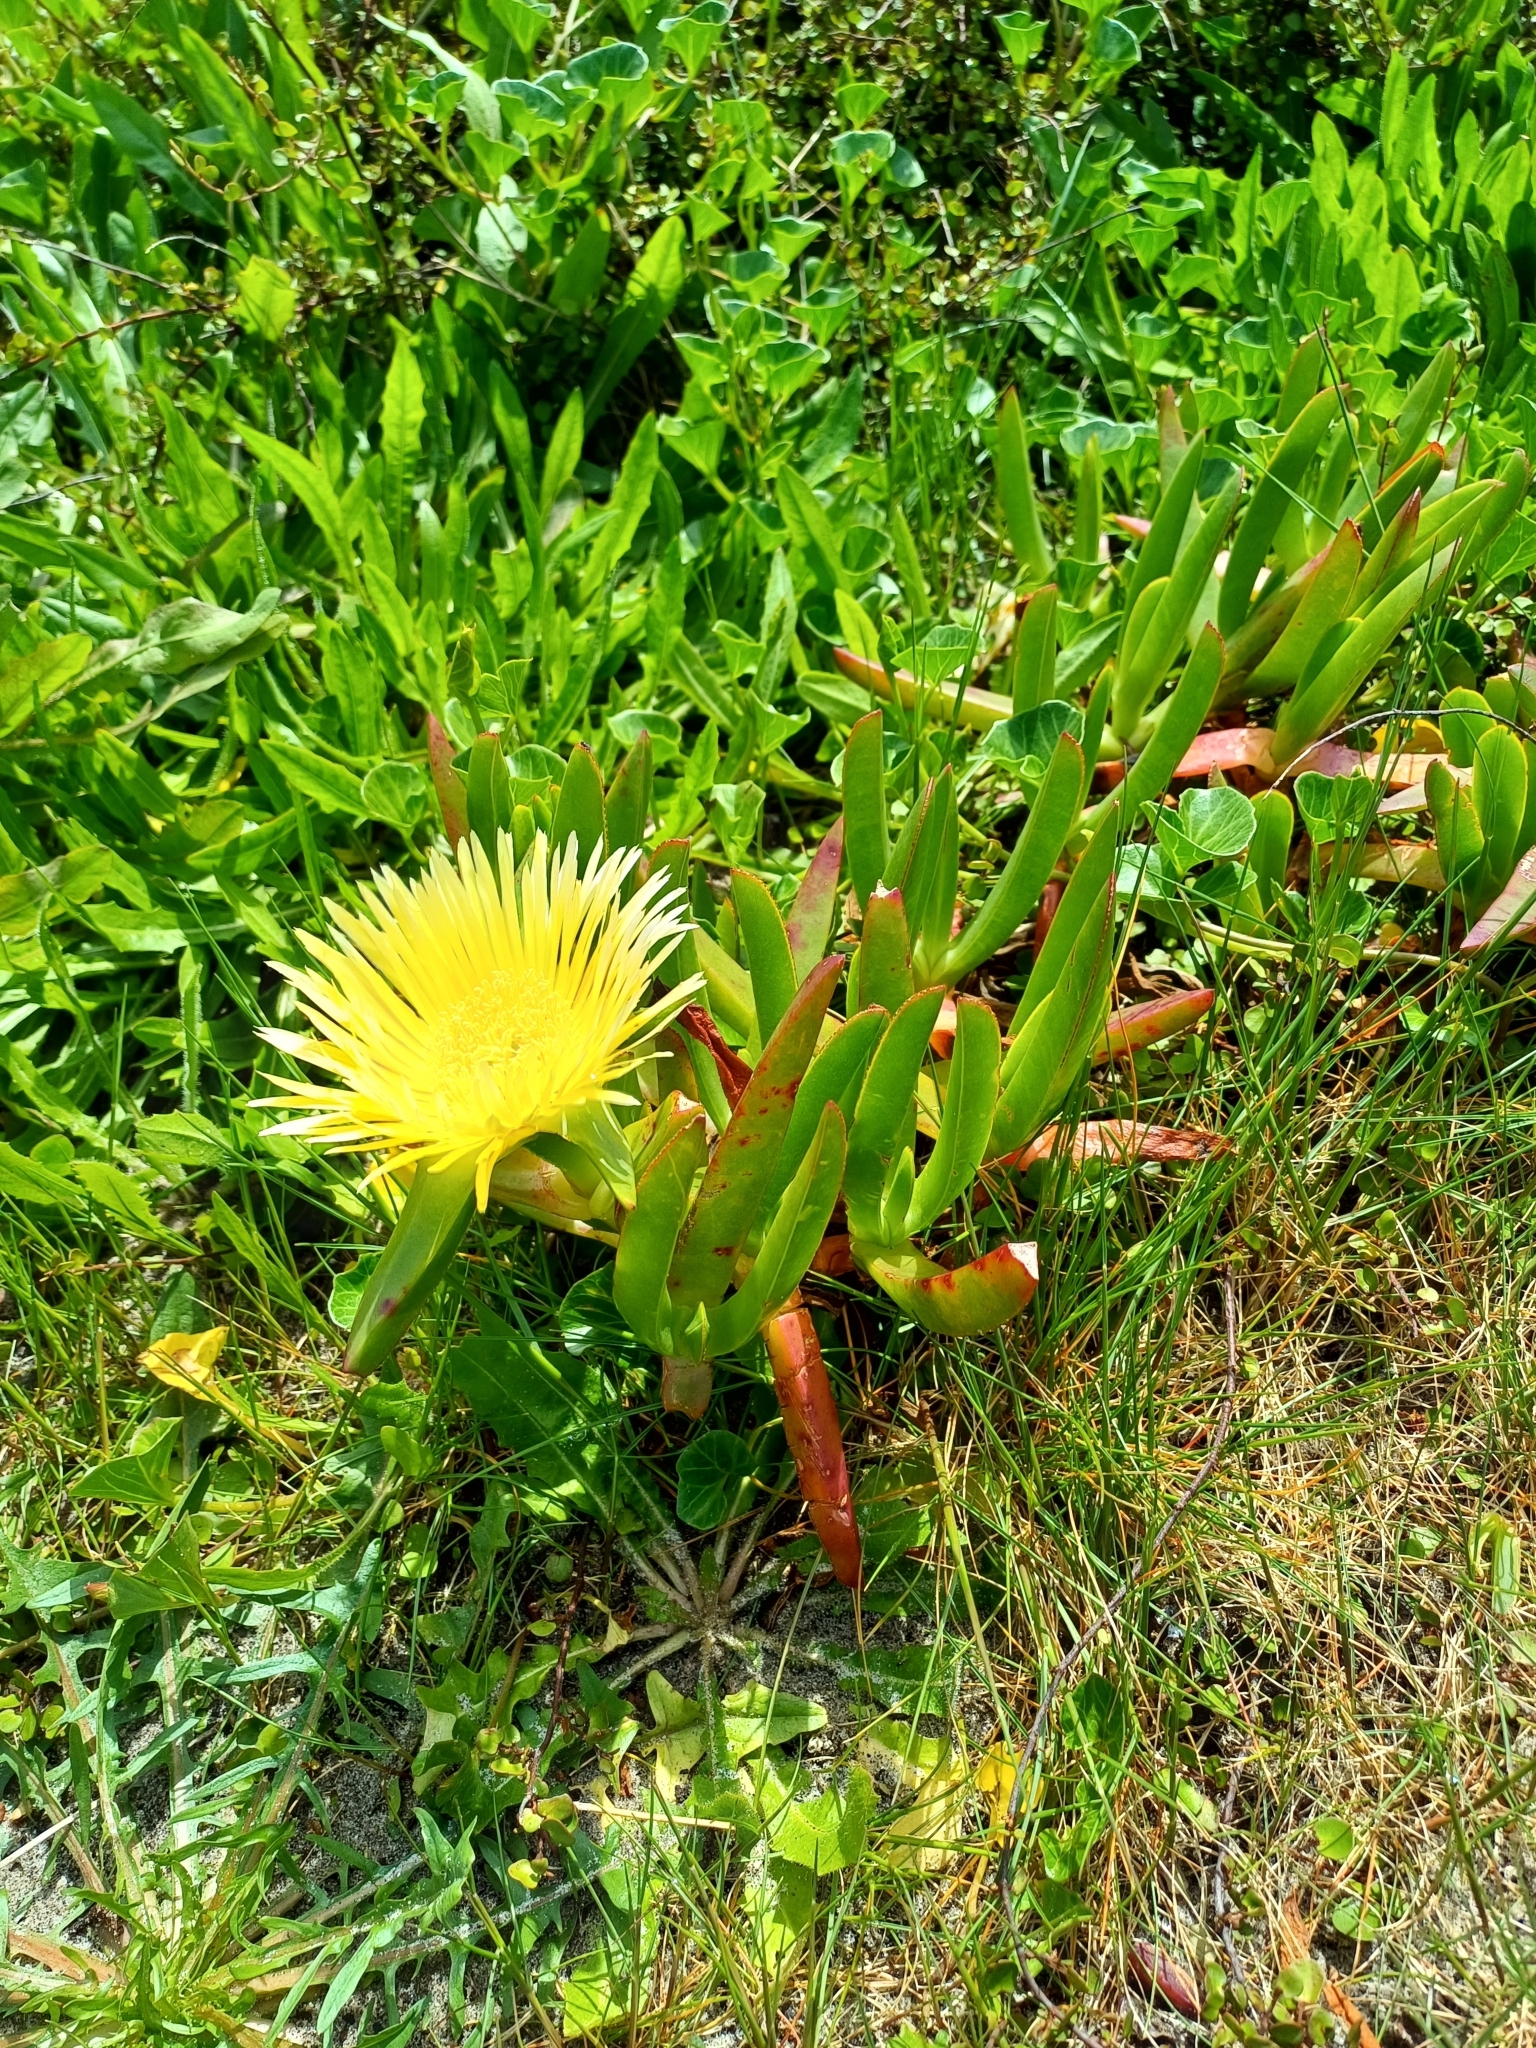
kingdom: Plantae
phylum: Tracheophyta
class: Magnoliopsida
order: Caryophyllales
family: Aizoaceae
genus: Carpobrotus
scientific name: Carpobrotus edulis
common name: Hottentot-fig
